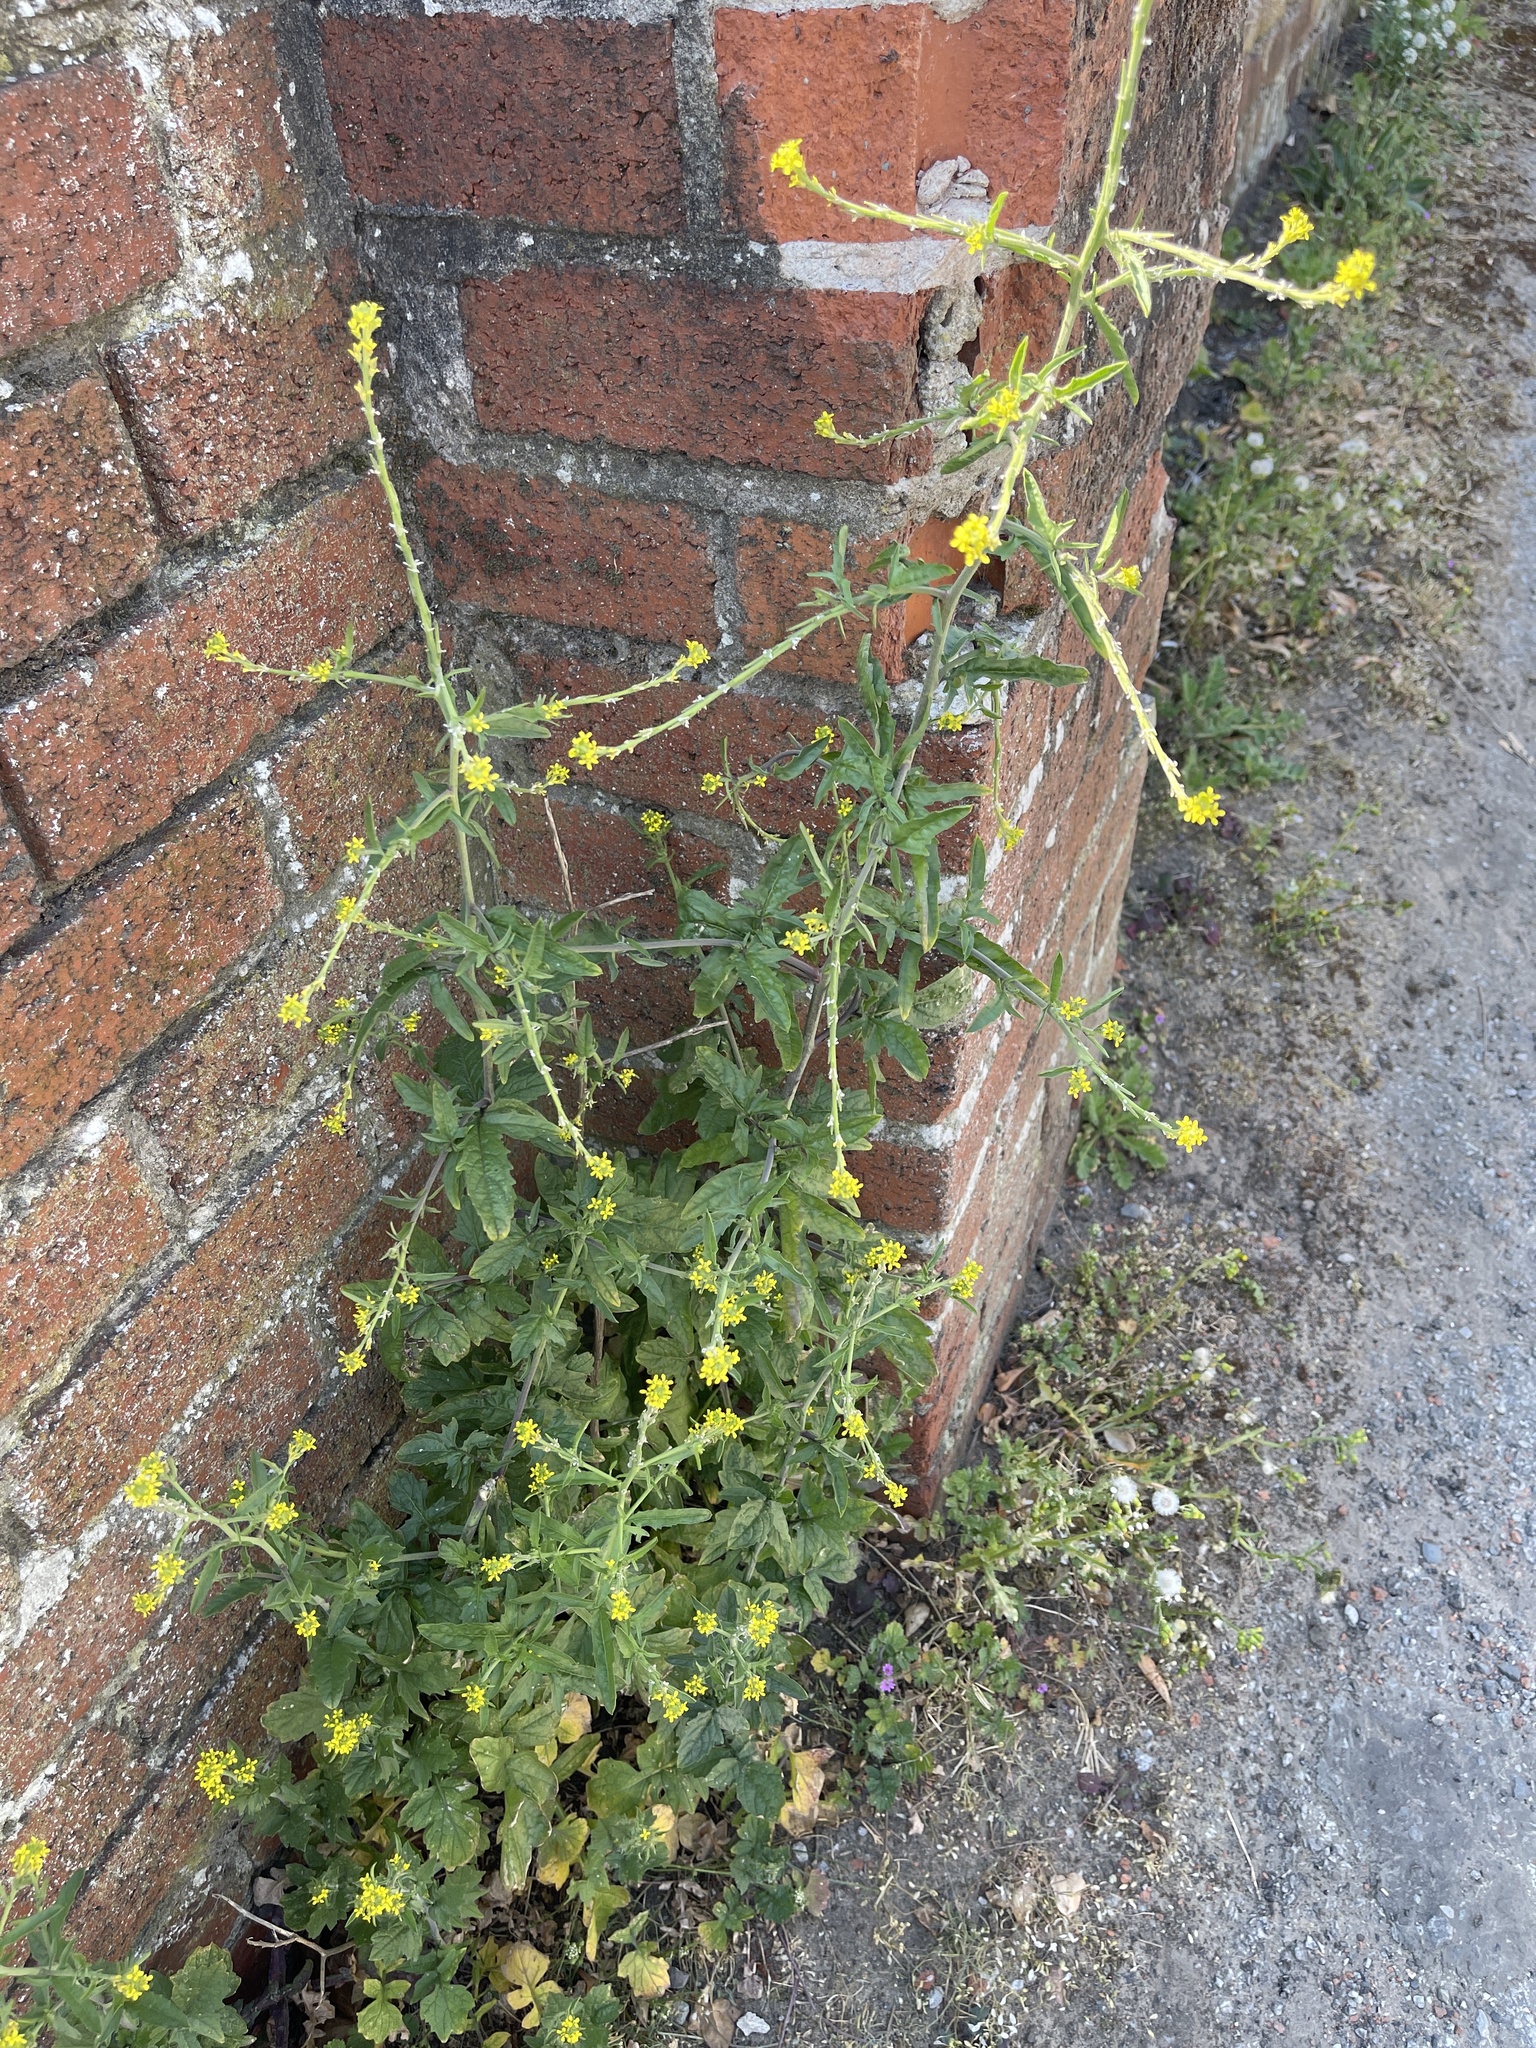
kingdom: Plantae
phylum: Tracheophyta
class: Magnoliopsida
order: Brassicales
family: Brassicaceae
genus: Sisymbrium
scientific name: Sisymbrium officinale
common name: Hedge mustard
